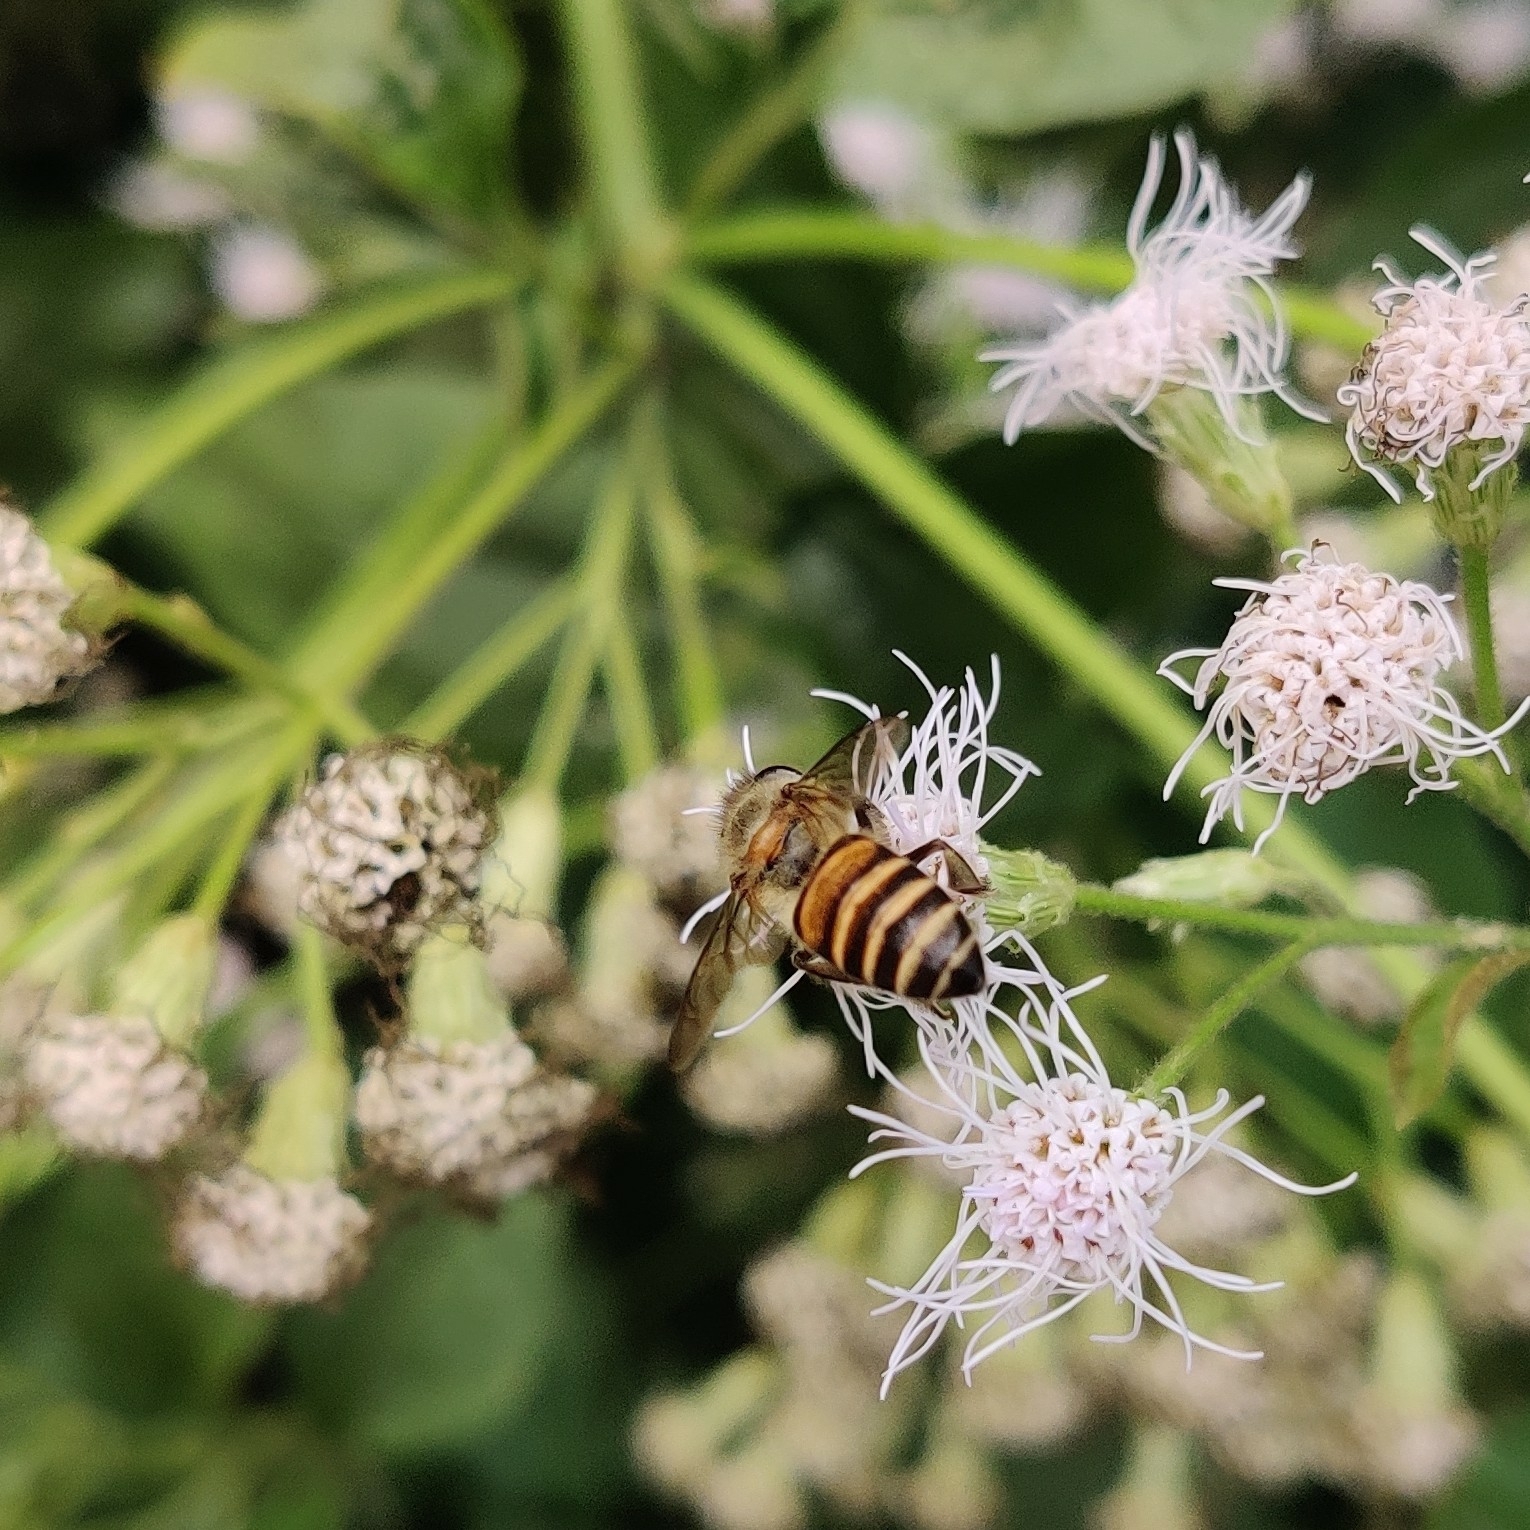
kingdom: Animalia
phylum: Arthropoda
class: Insecta
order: Hymenoptera
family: Apidae
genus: Apis
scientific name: Apis cerana
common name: Honey bee
